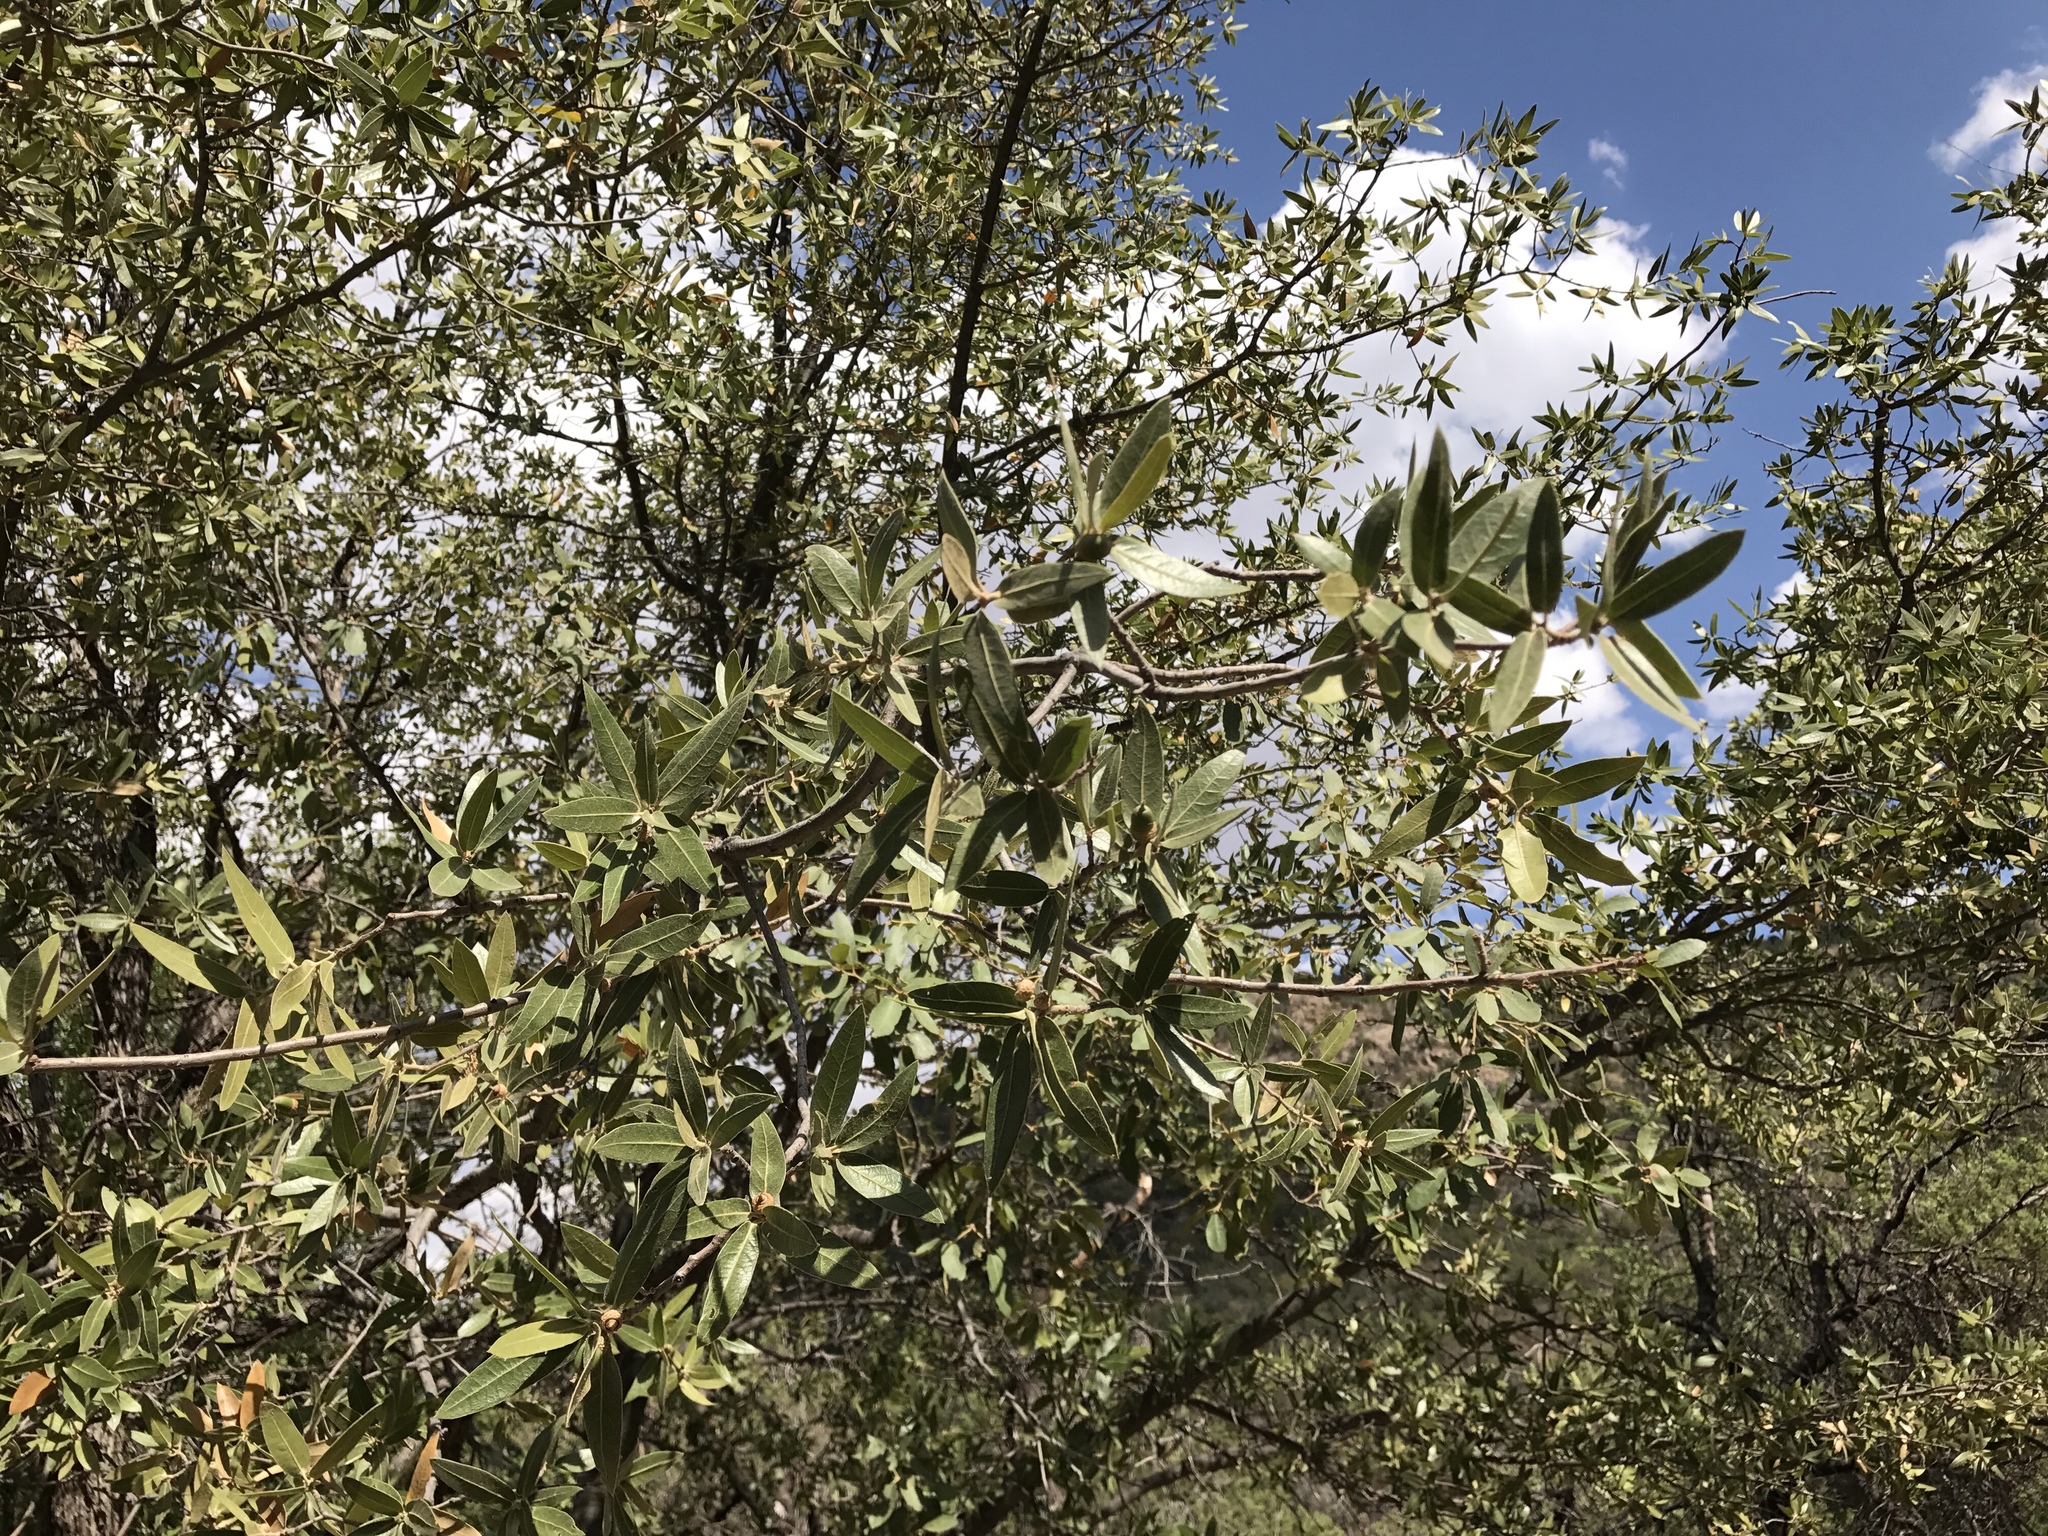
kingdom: Plantae
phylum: Tracheophyta
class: Magnoliopsida
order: Fagales
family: Fagaceae
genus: Quercus
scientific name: Quercus emoryi
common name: Emory oak
